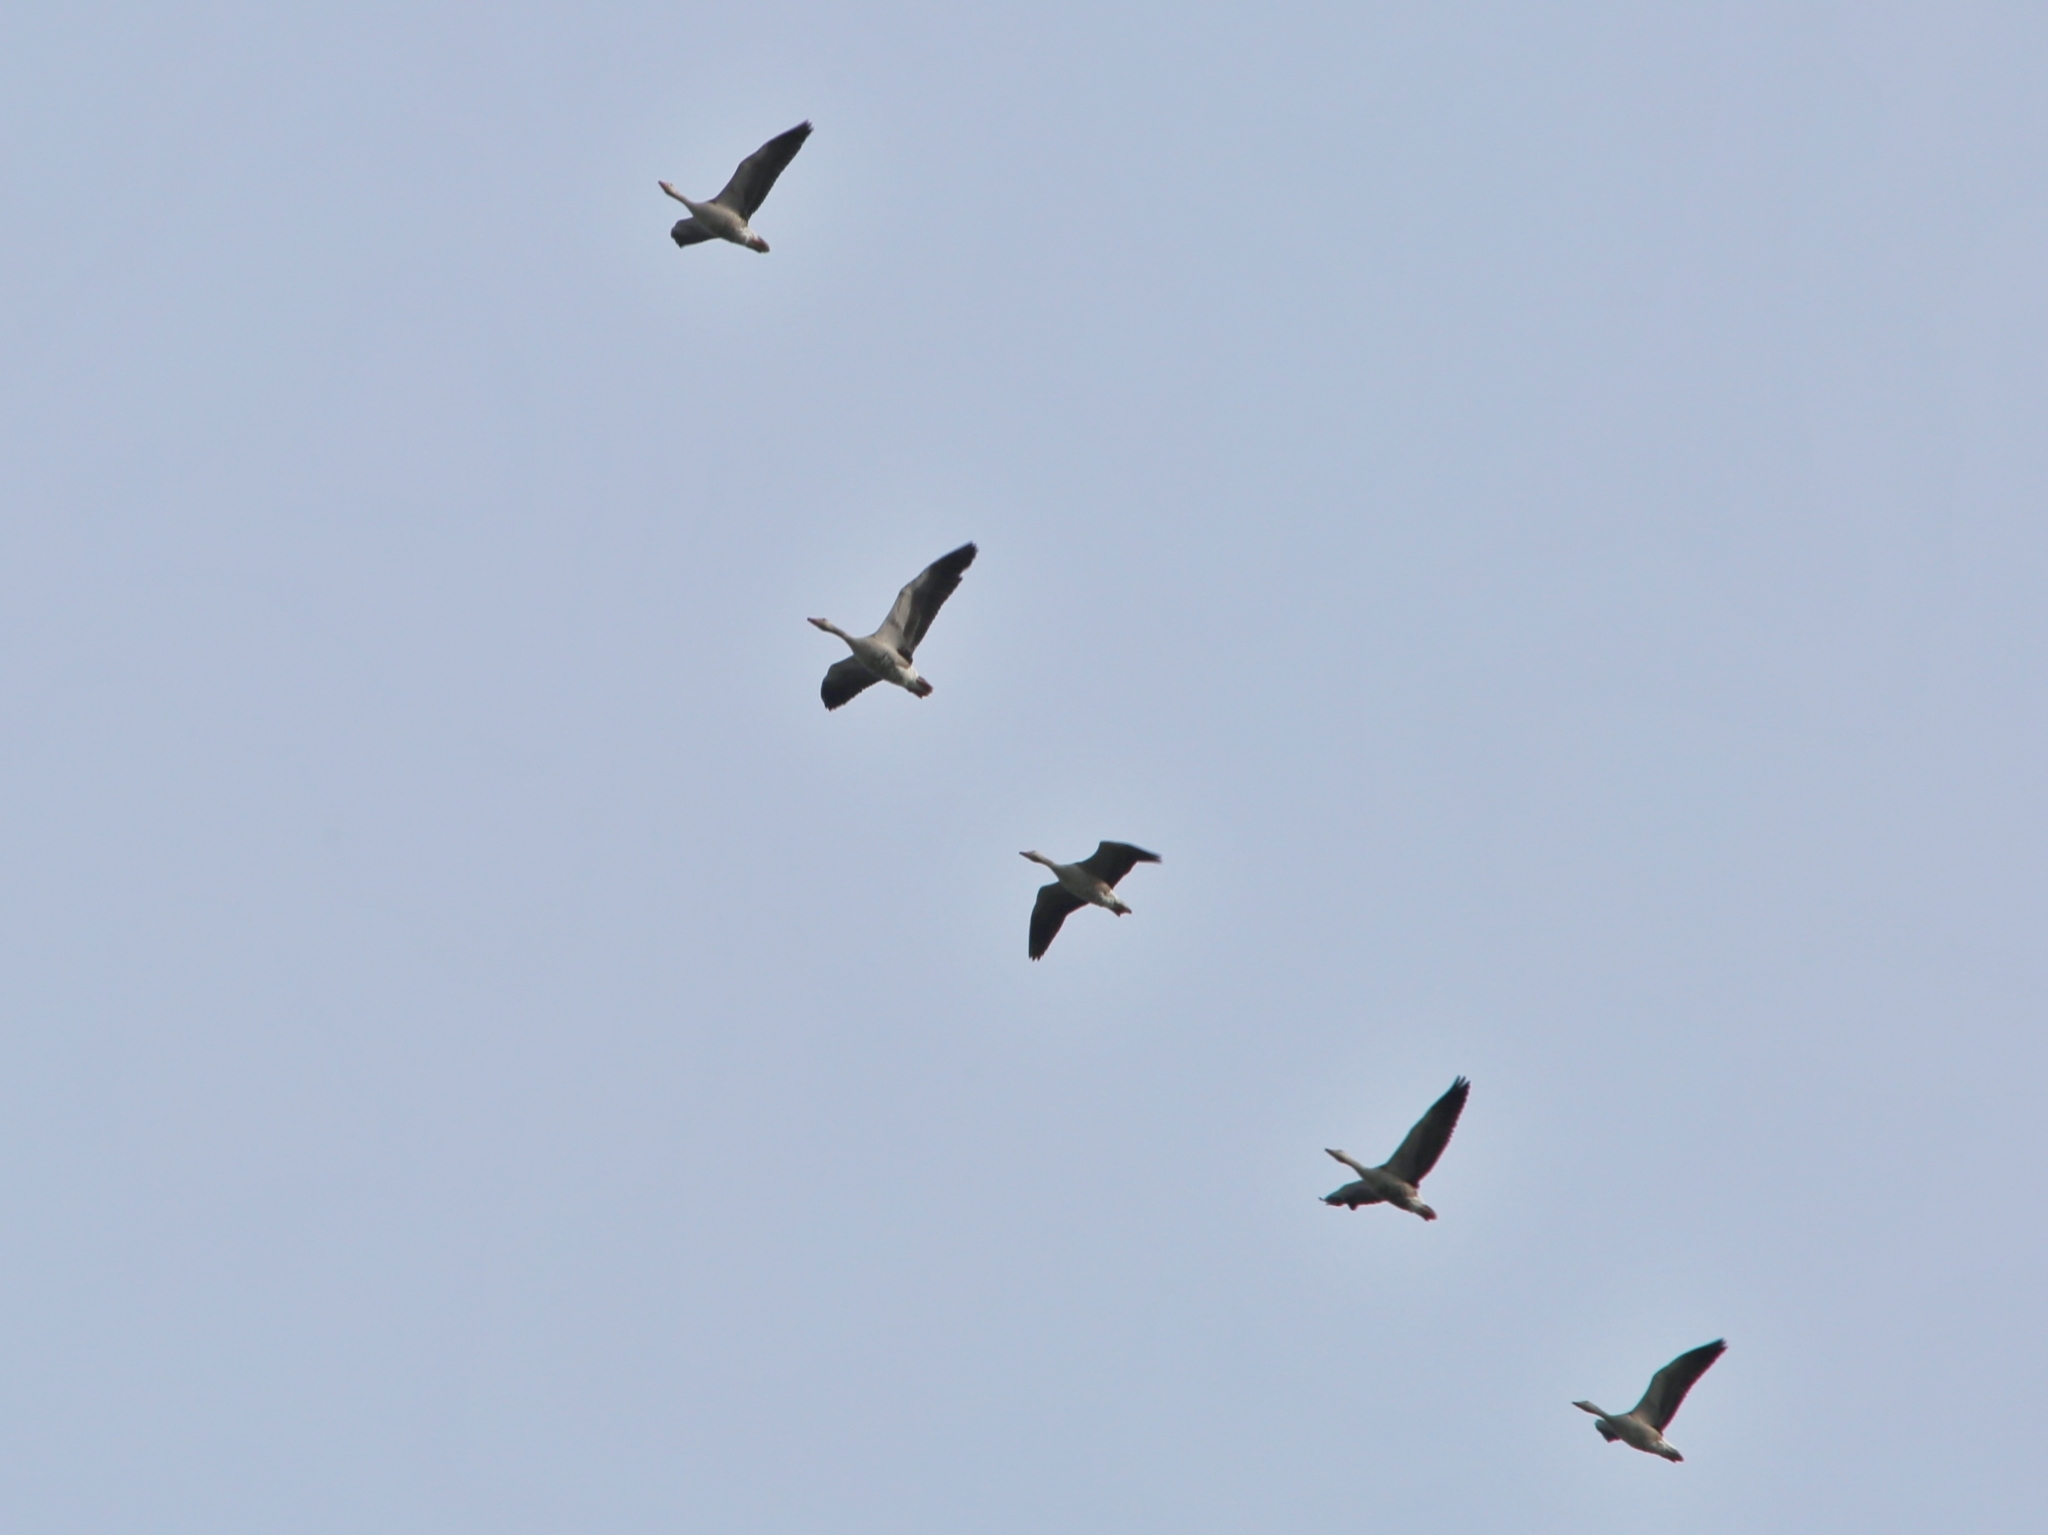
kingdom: Animalia
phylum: Chordata
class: Aves
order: Anseriformes
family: Anatidae
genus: Anser
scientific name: Anser anser
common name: Greylag goose
